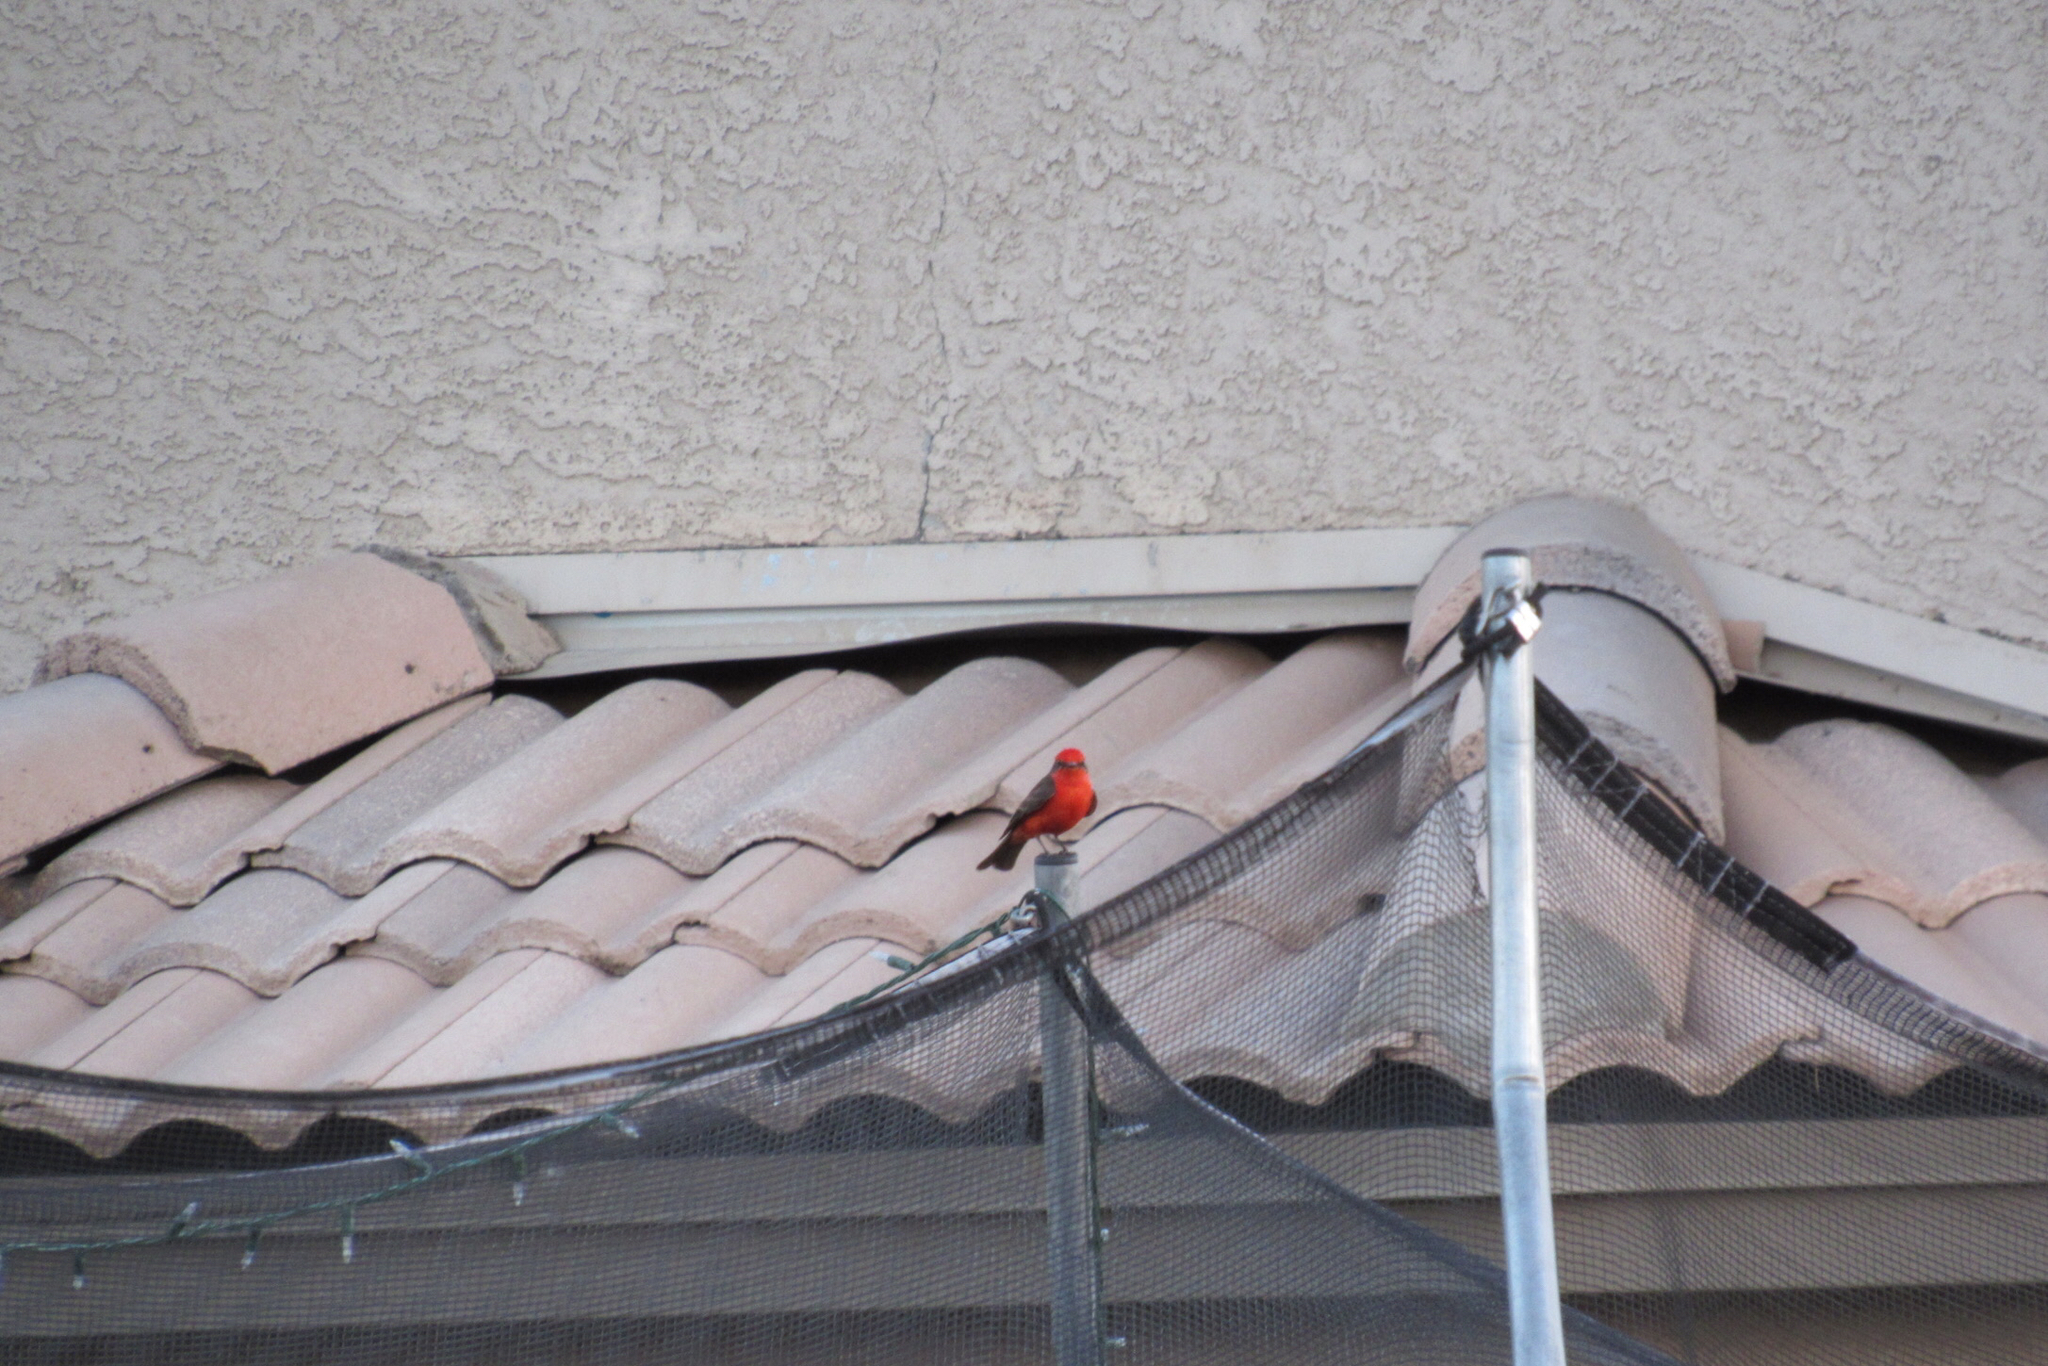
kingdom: Animalia
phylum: Chordata
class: Aves
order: Passeriformes
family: Tyrannidae
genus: Pyrocephalus
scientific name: Pyrocephalus rubinus
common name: Vermilion flycatcher
